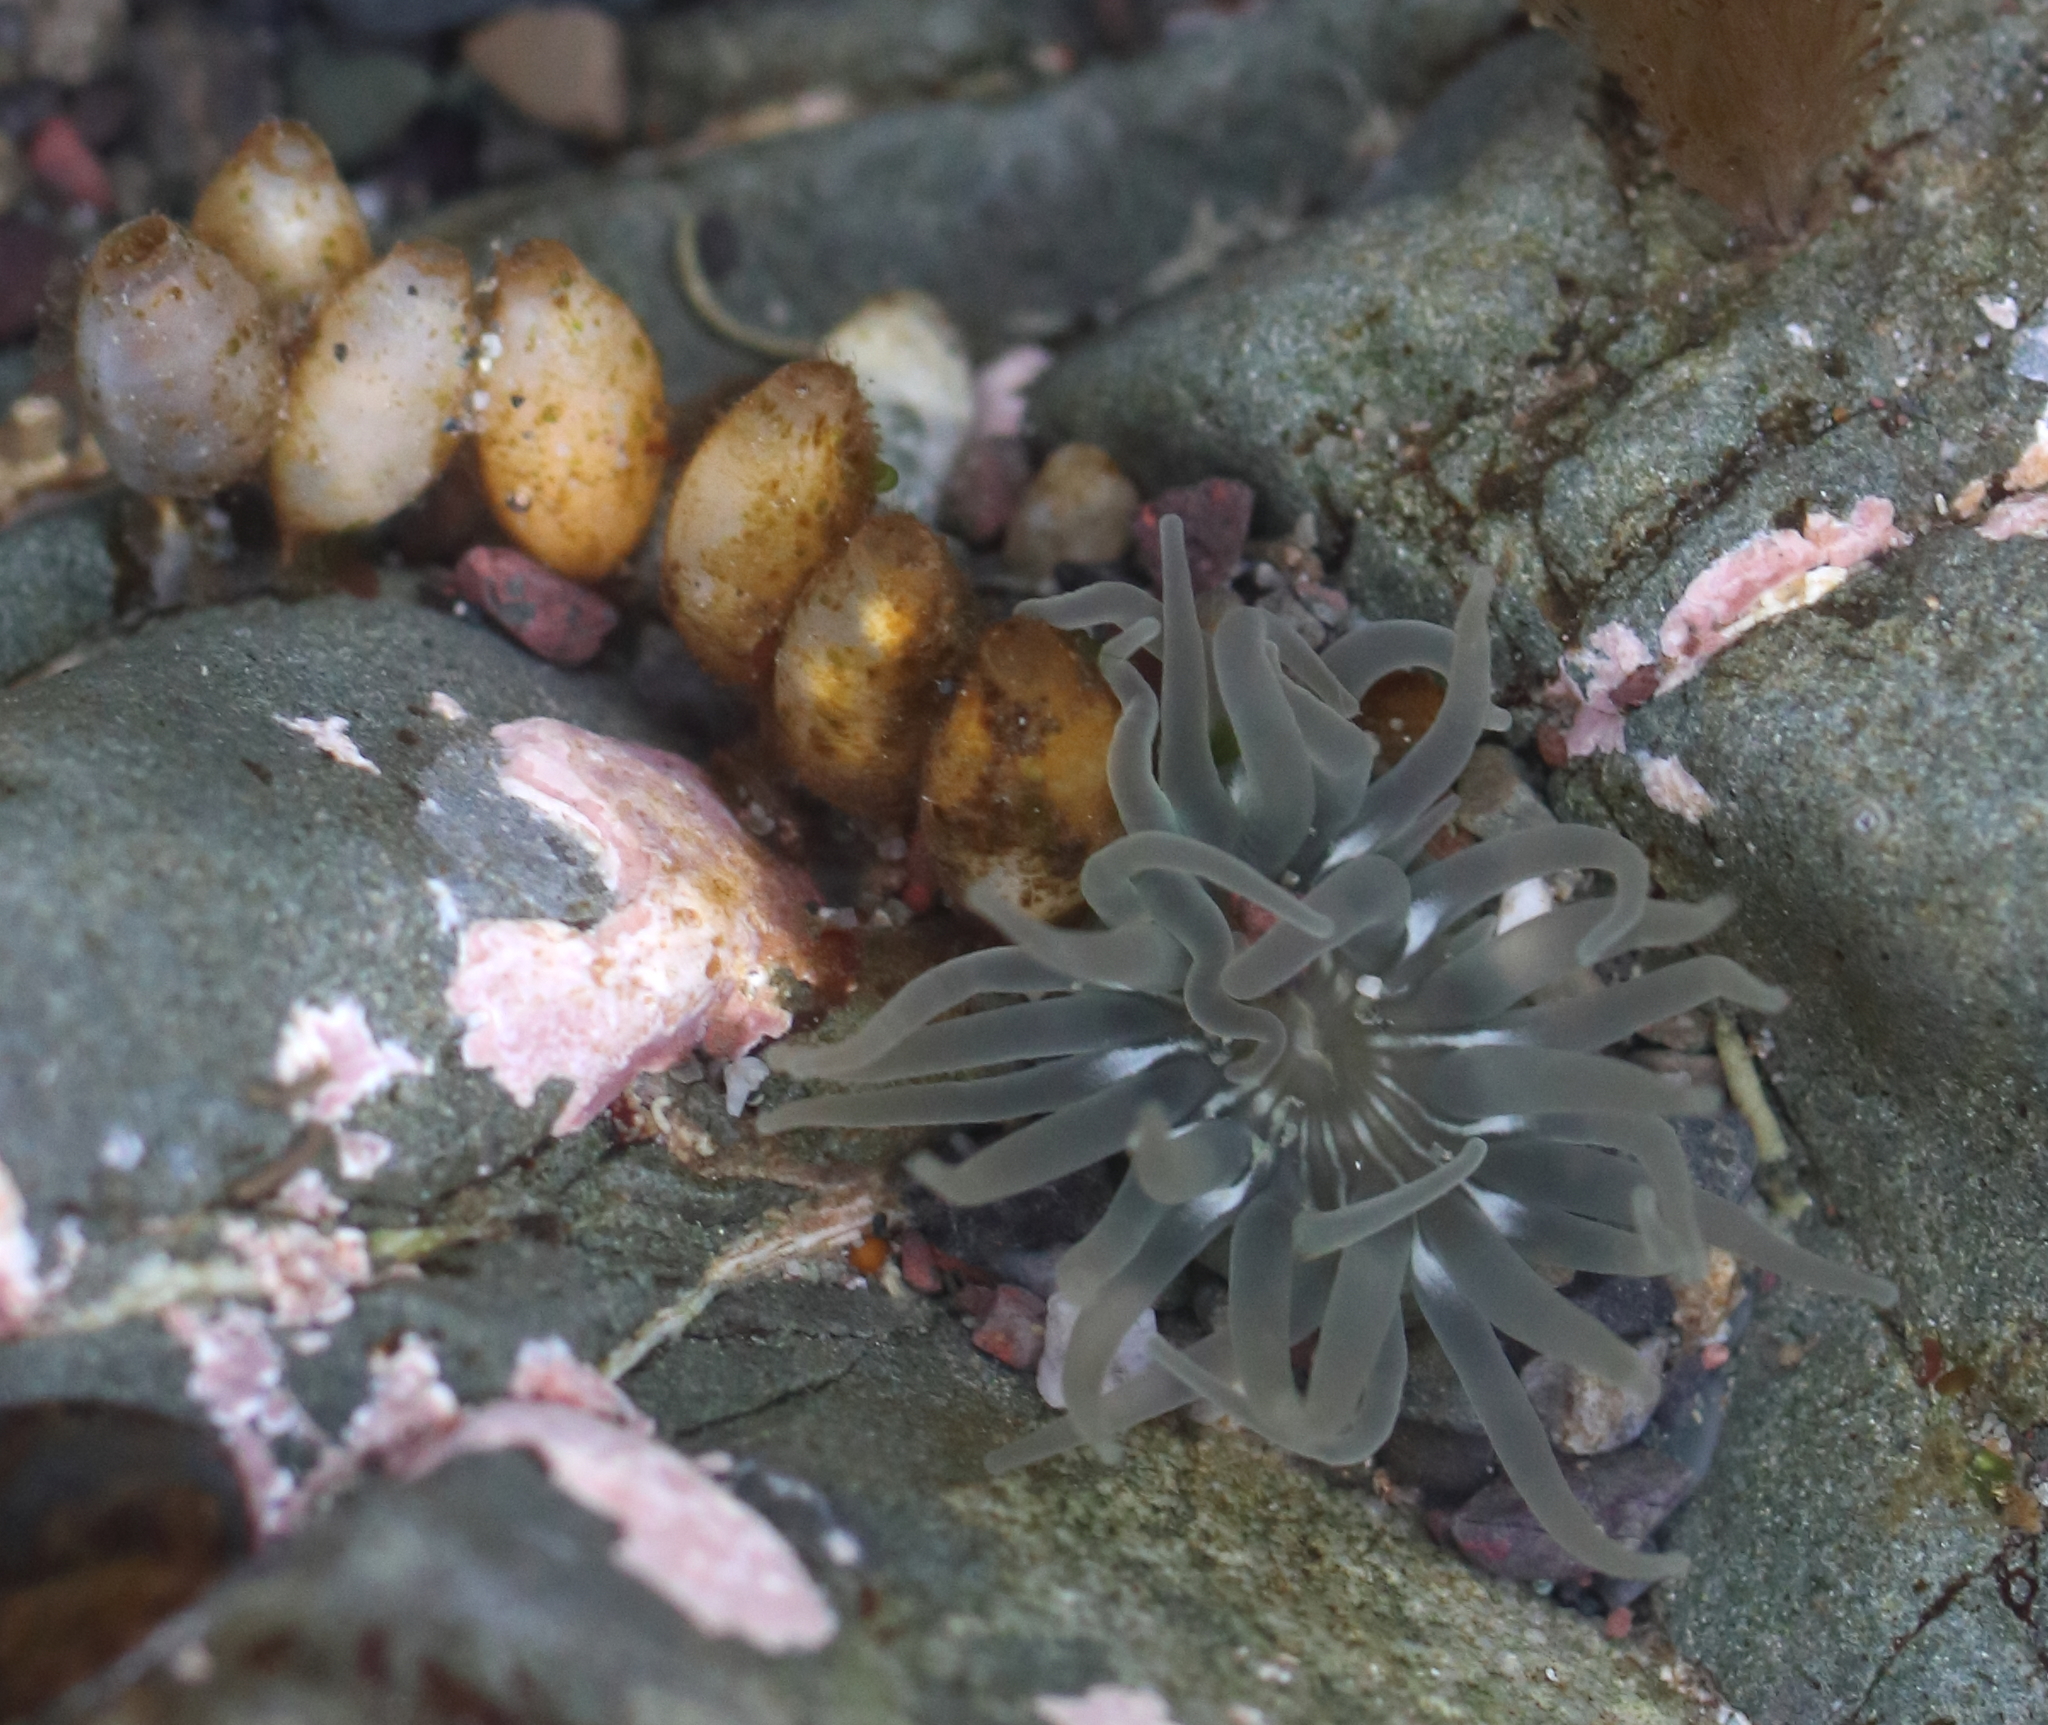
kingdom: Animalia
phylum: Cnidaria
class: Anthozoa
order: Actiniaria
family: Actiniidae
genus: Aulactinia
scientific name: Aulactinia incubans
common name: Incubating anemone
